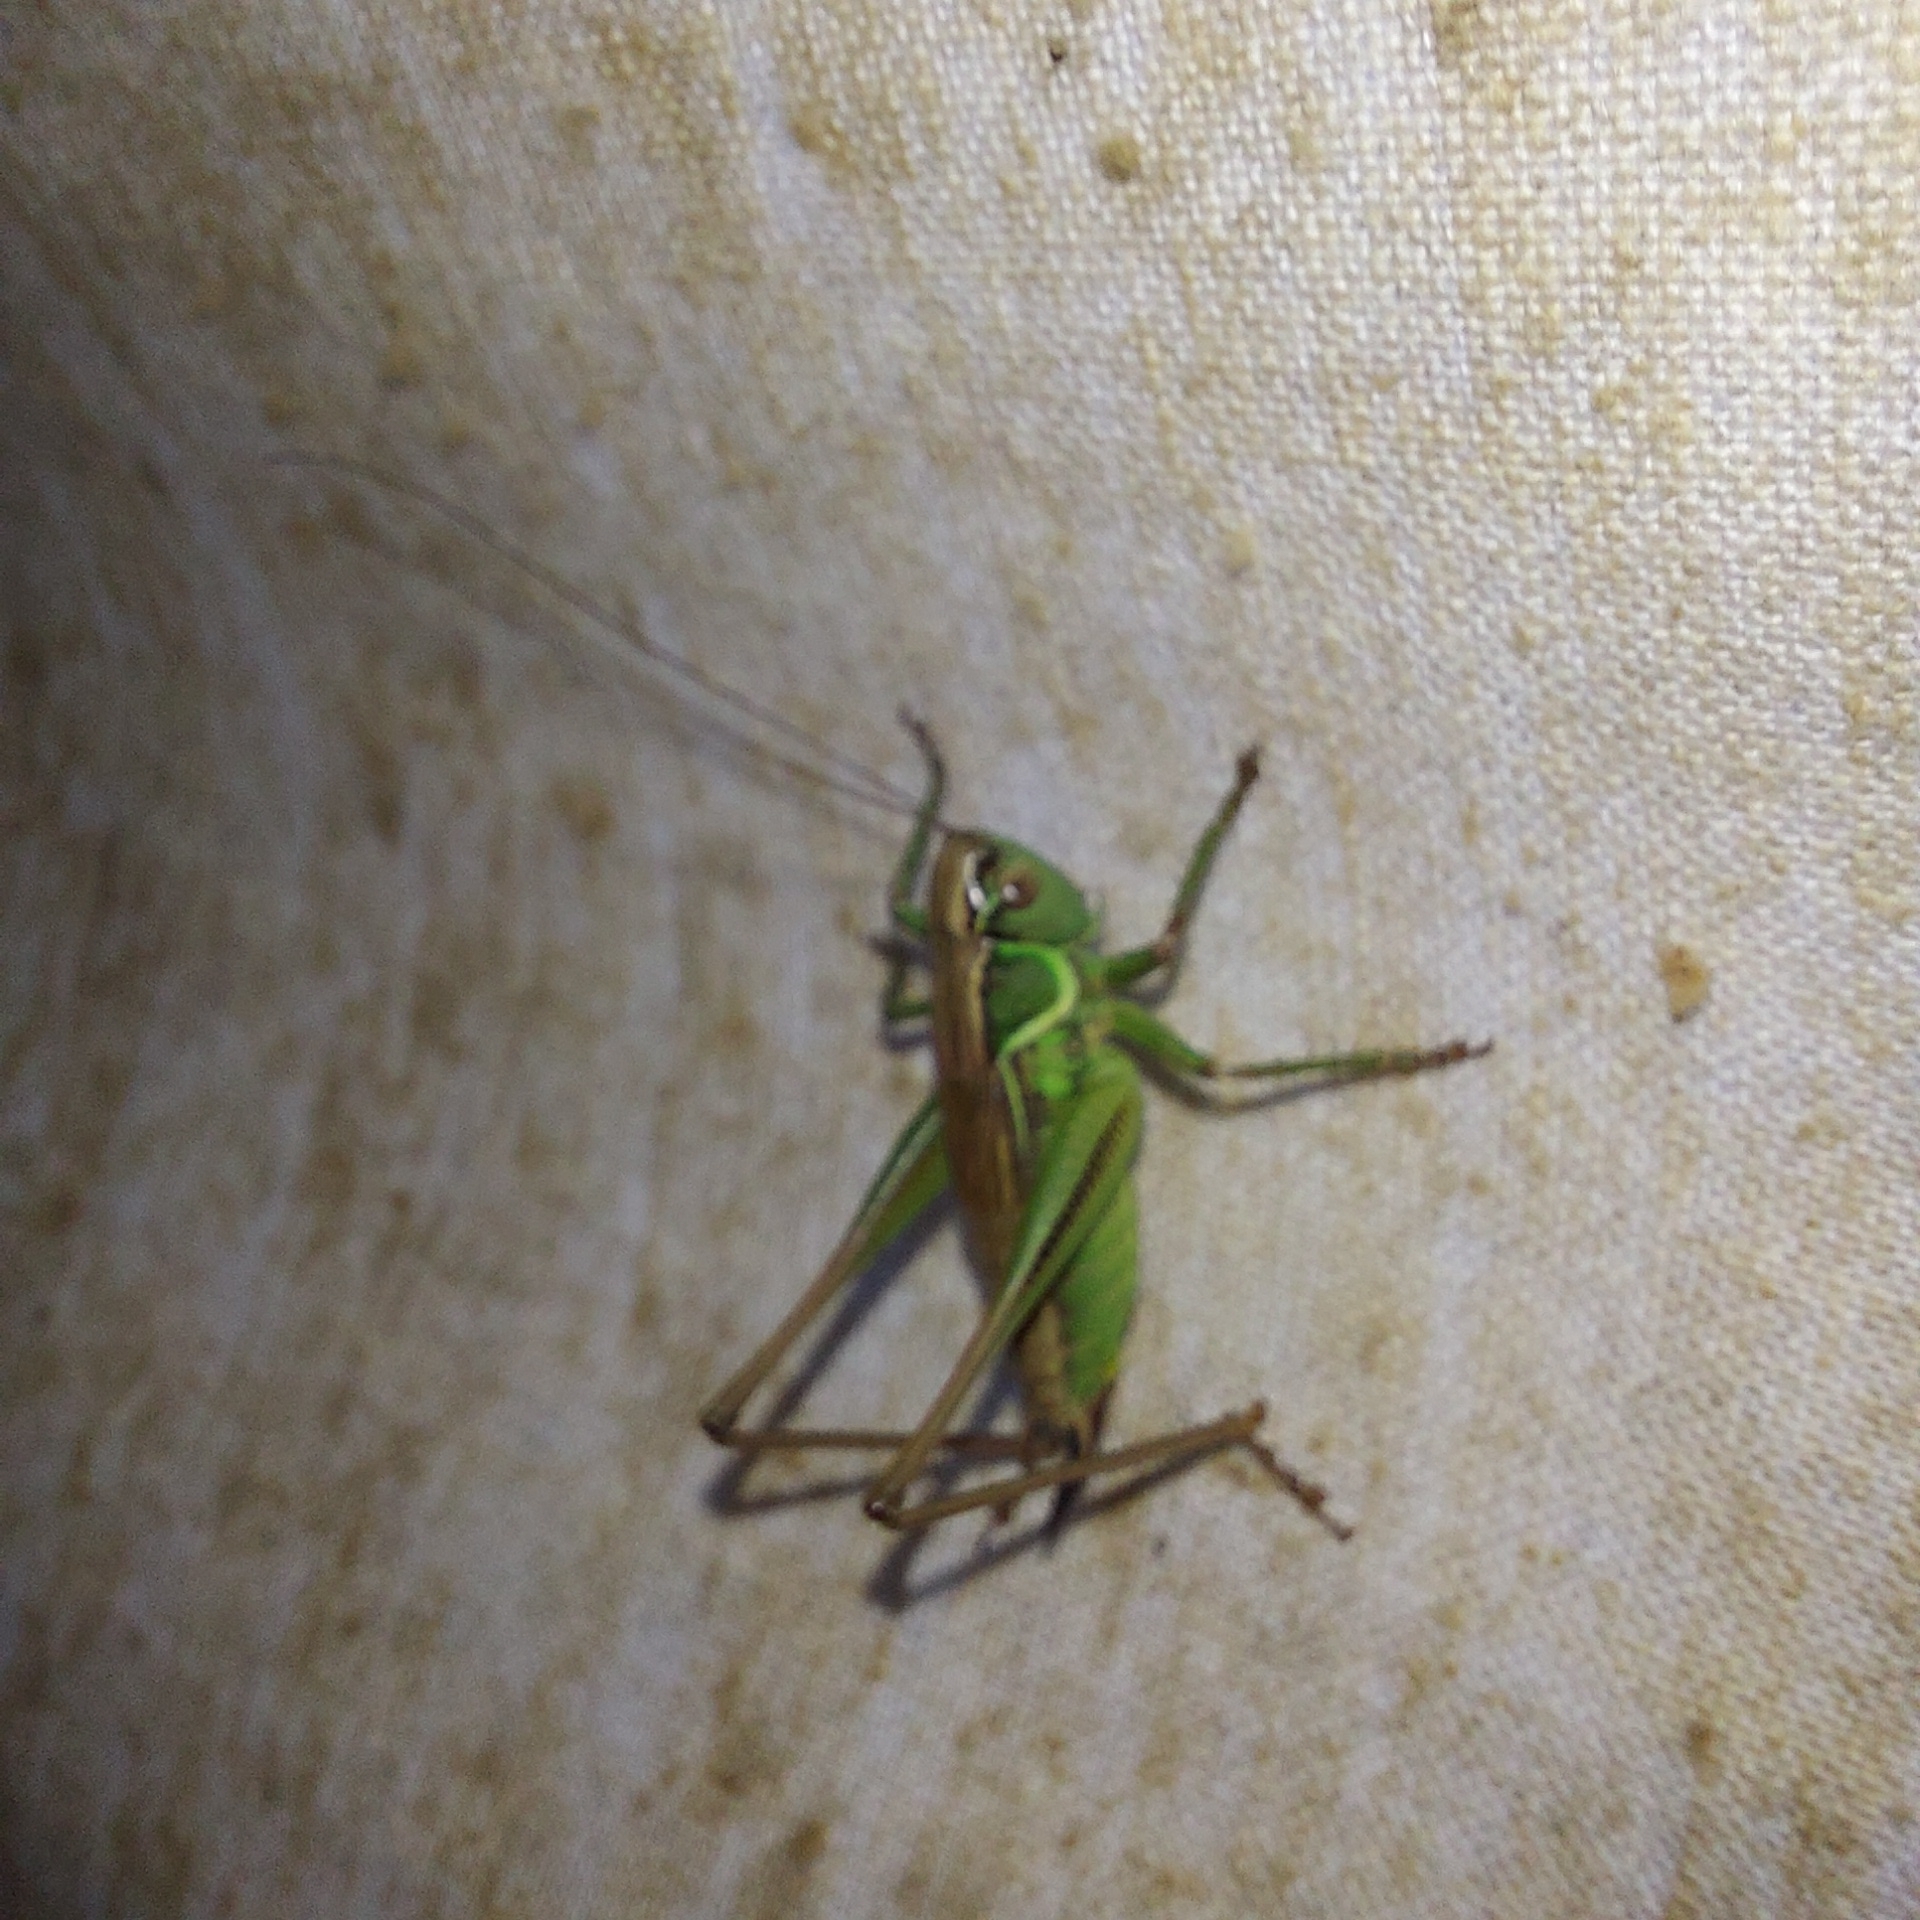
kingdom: Animalia
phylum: Arthropoda
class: Insecta
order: Orthoptera
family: Tettigoniidae
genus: Roeseliana
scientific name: Roeseliana roeselii
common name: Roesel's bush cricket
